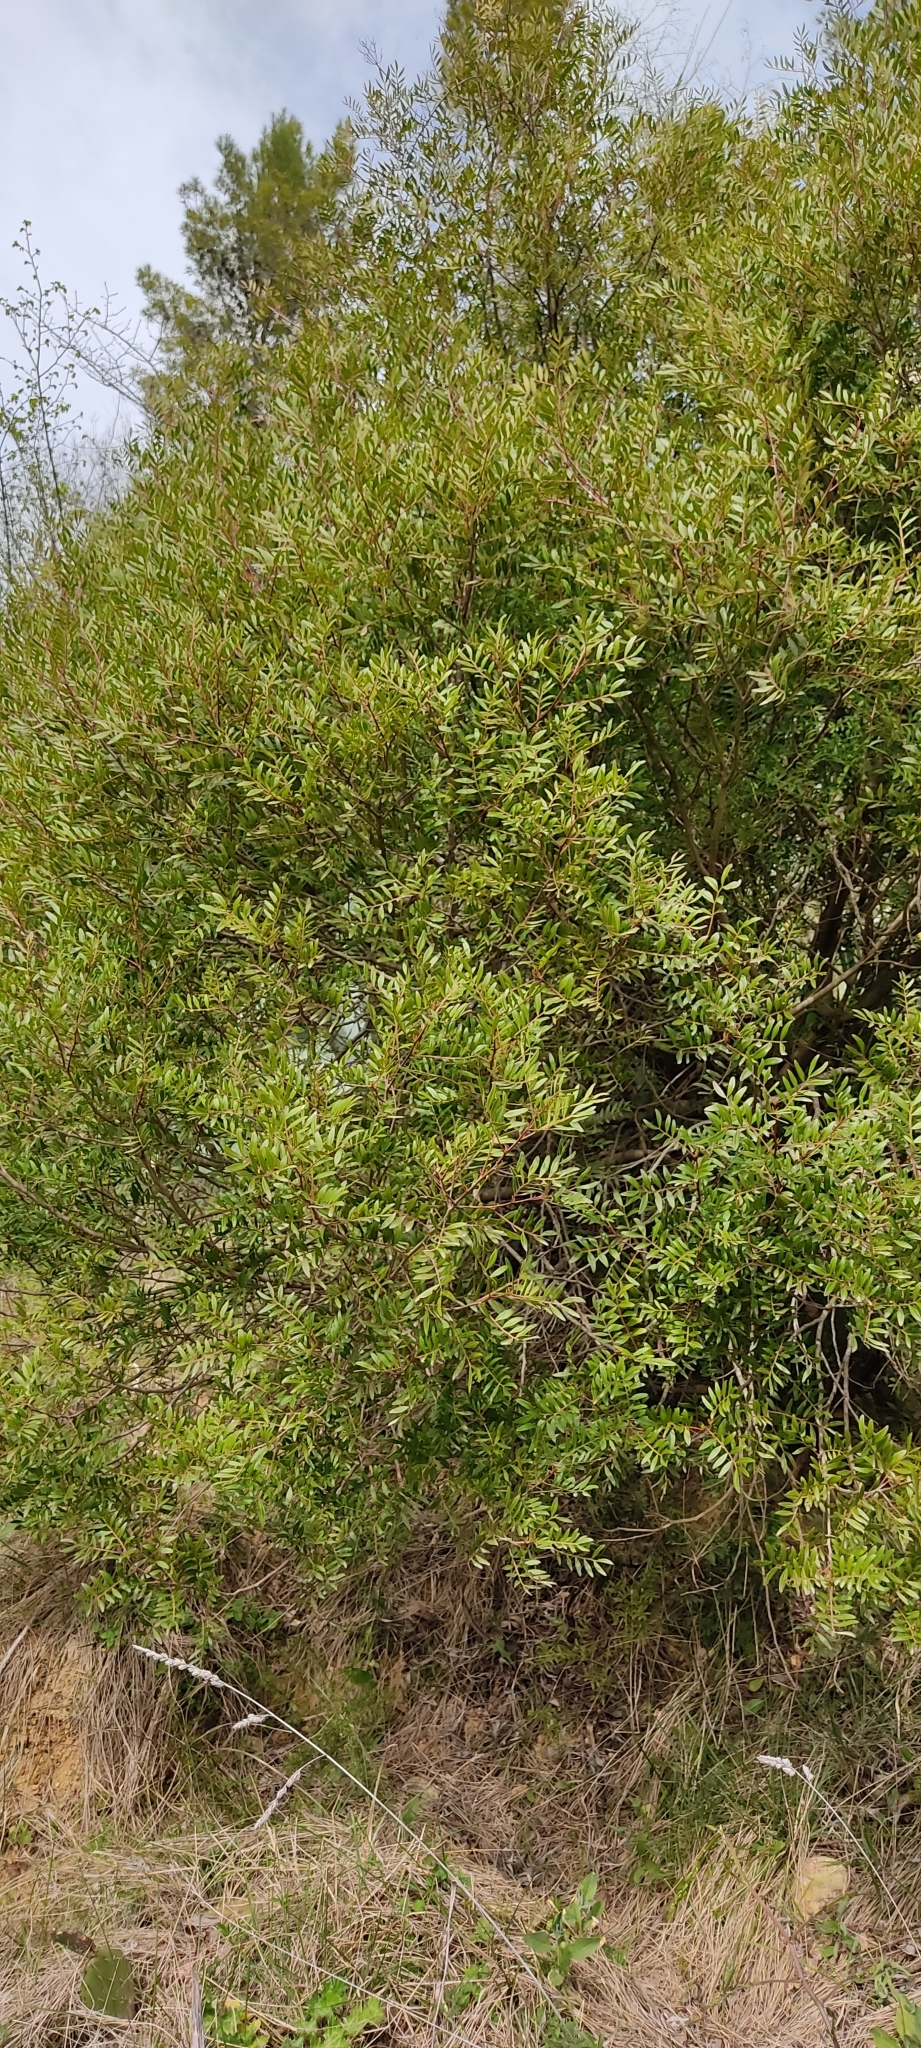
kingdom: Plantae
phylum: Tracheophyta
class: Magnoliopsida
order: Sapindales
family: Anacardiaceae
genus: Pistacia
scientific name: Pistacia lentiscus
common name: Lentisk
